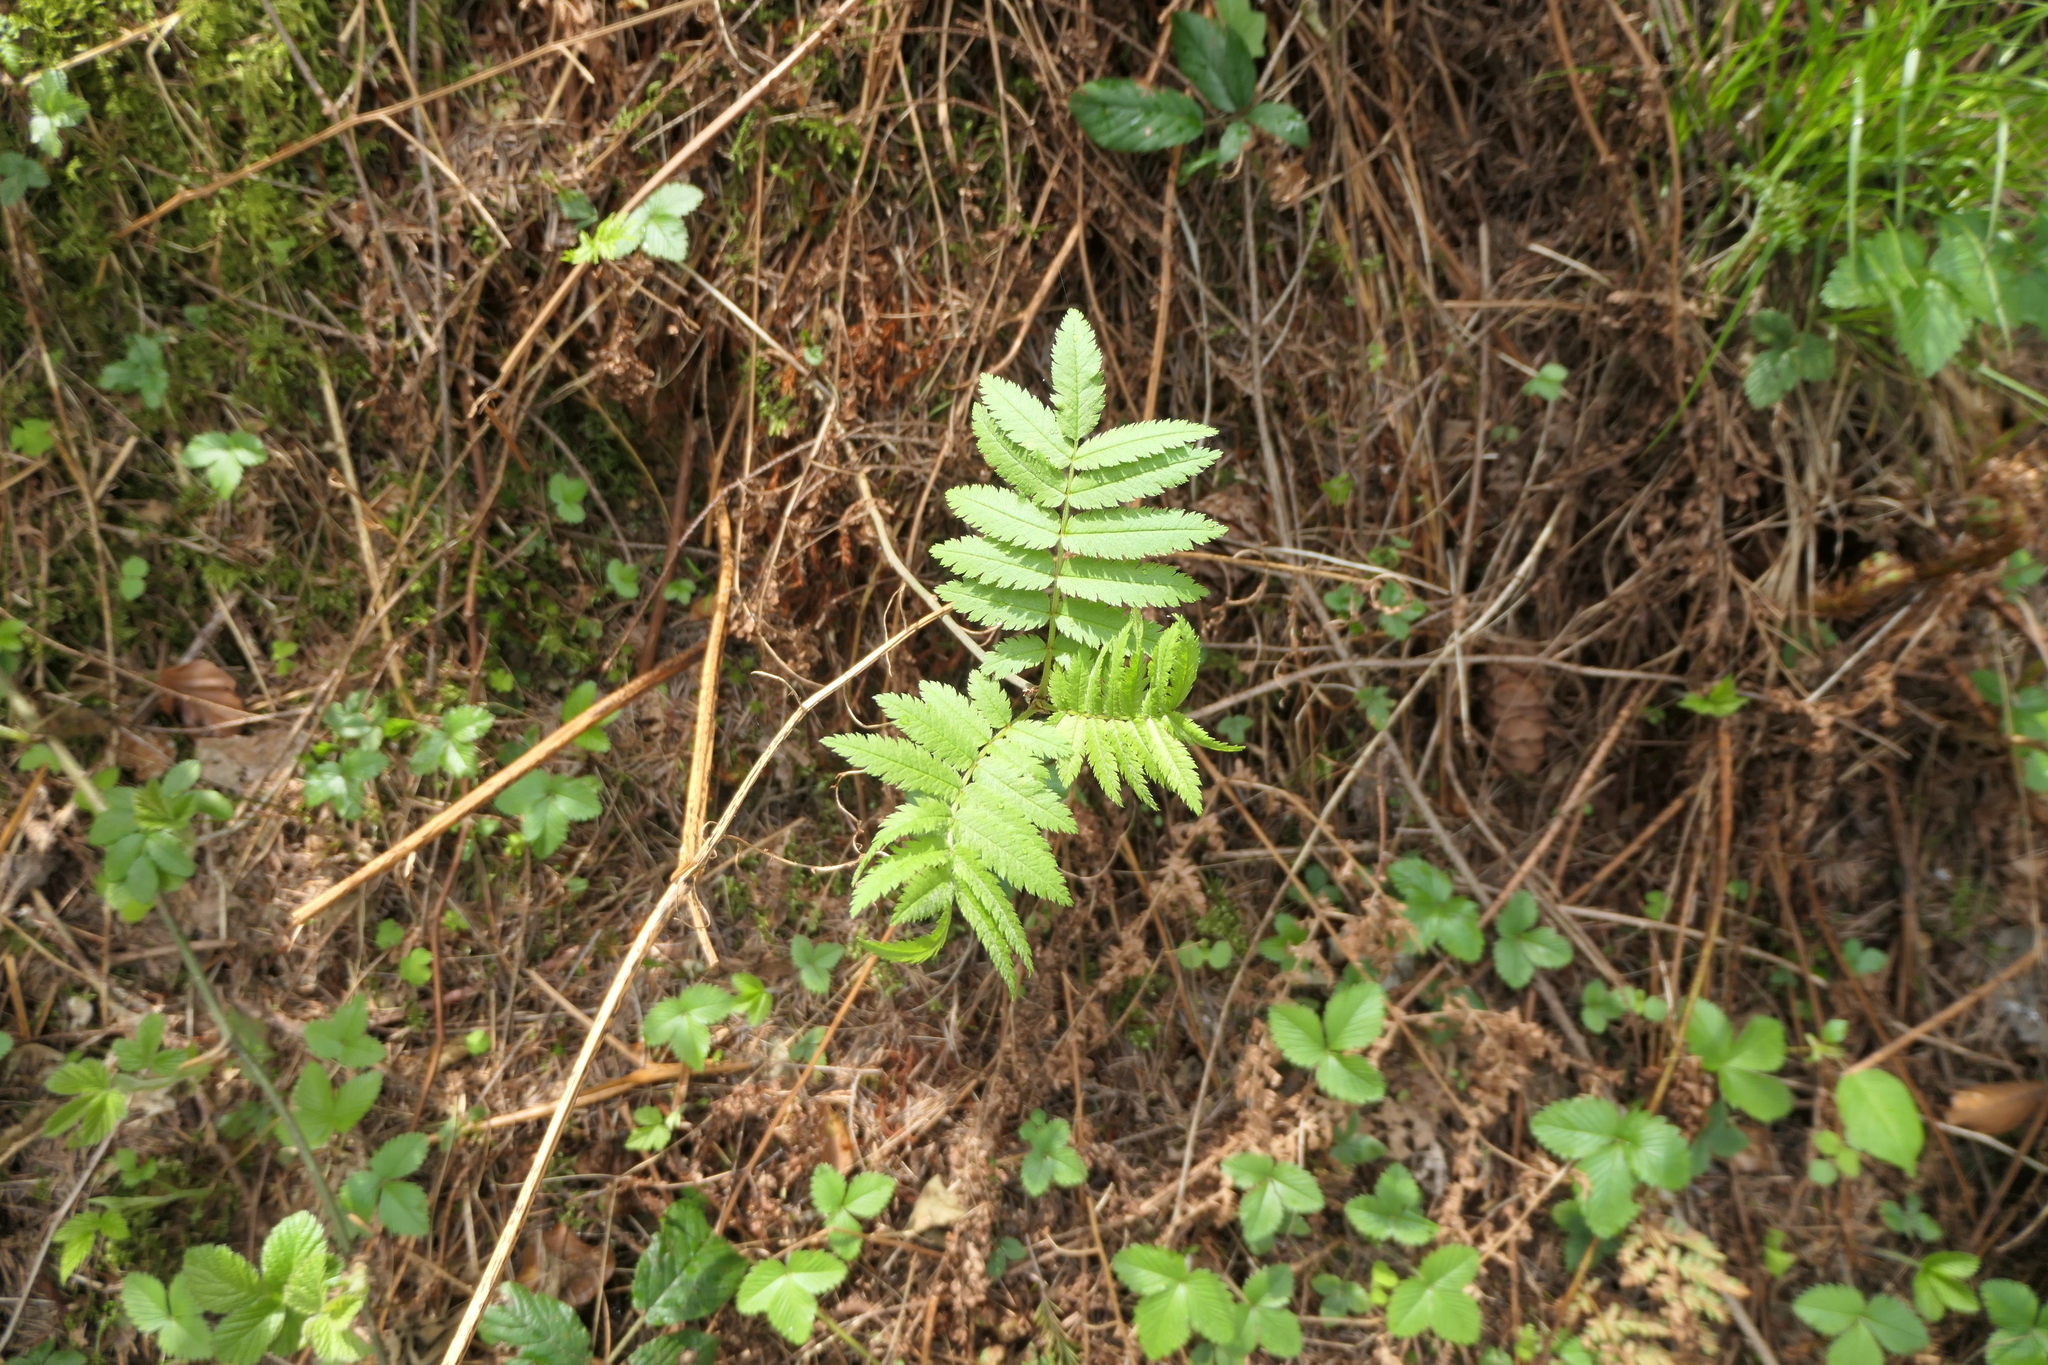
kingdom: Plantae
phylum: Tracheophyta
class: Magnoliopsida
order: Rosales
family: Rosaceae
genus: Sorbus
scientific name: Sorbus aucuparia
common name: Rowan
